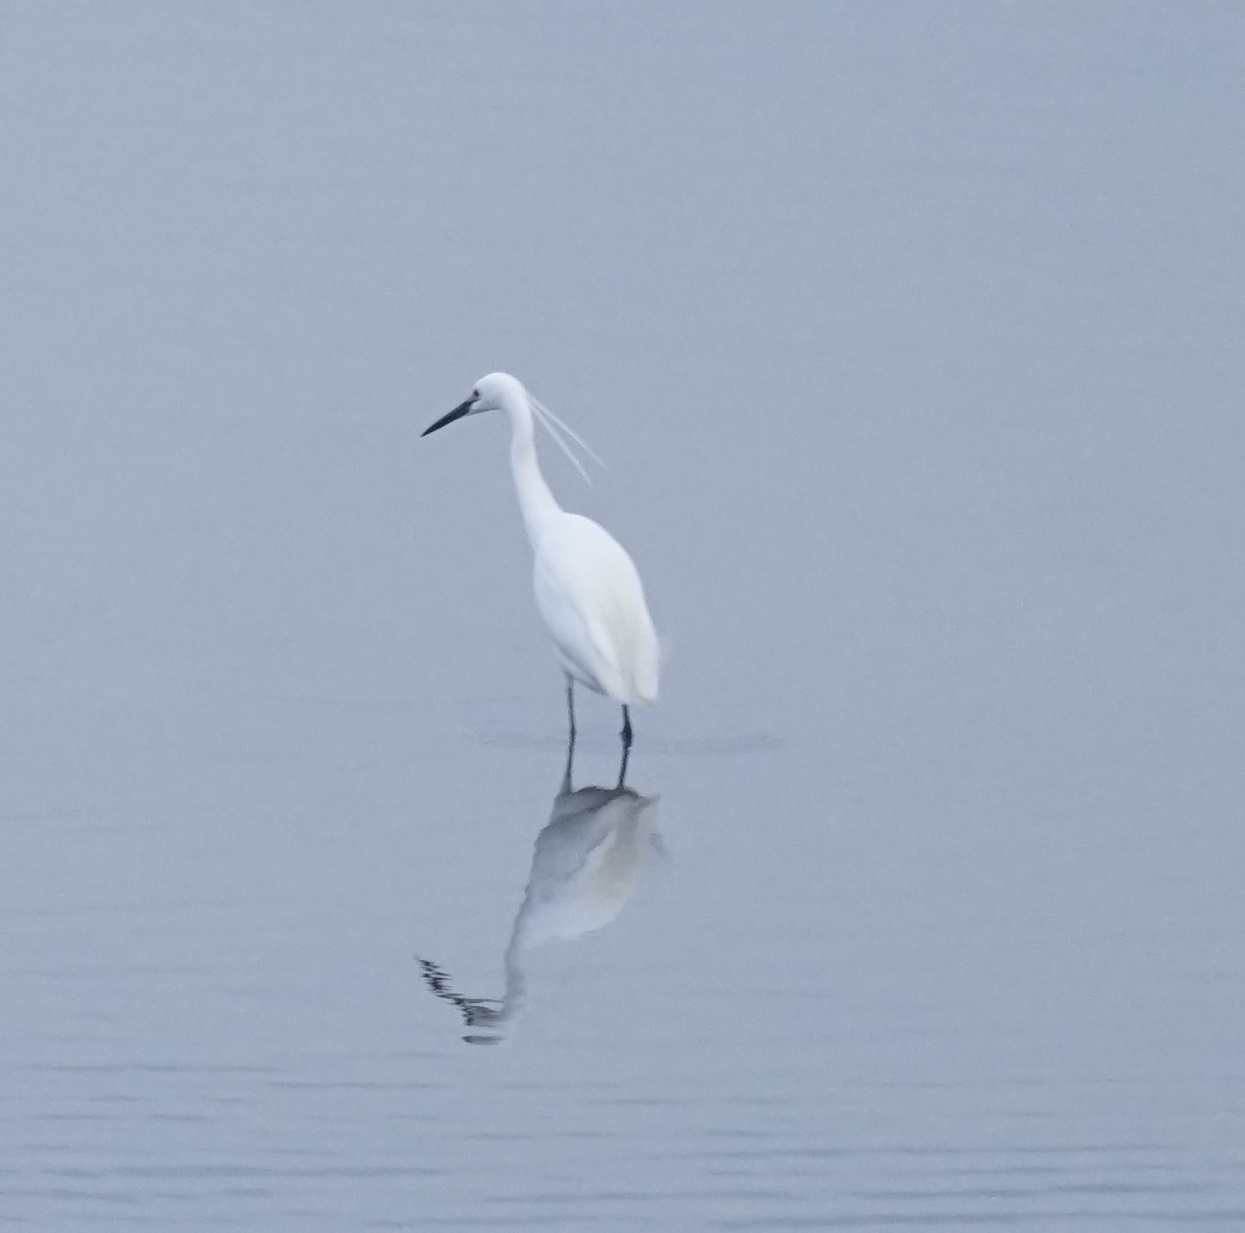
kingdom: Animalia
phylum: Chordata
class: Aves
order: Pelecaniformes
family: Ardeidae
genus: Egretta
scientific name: Egretta garzetta
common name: Little egret
